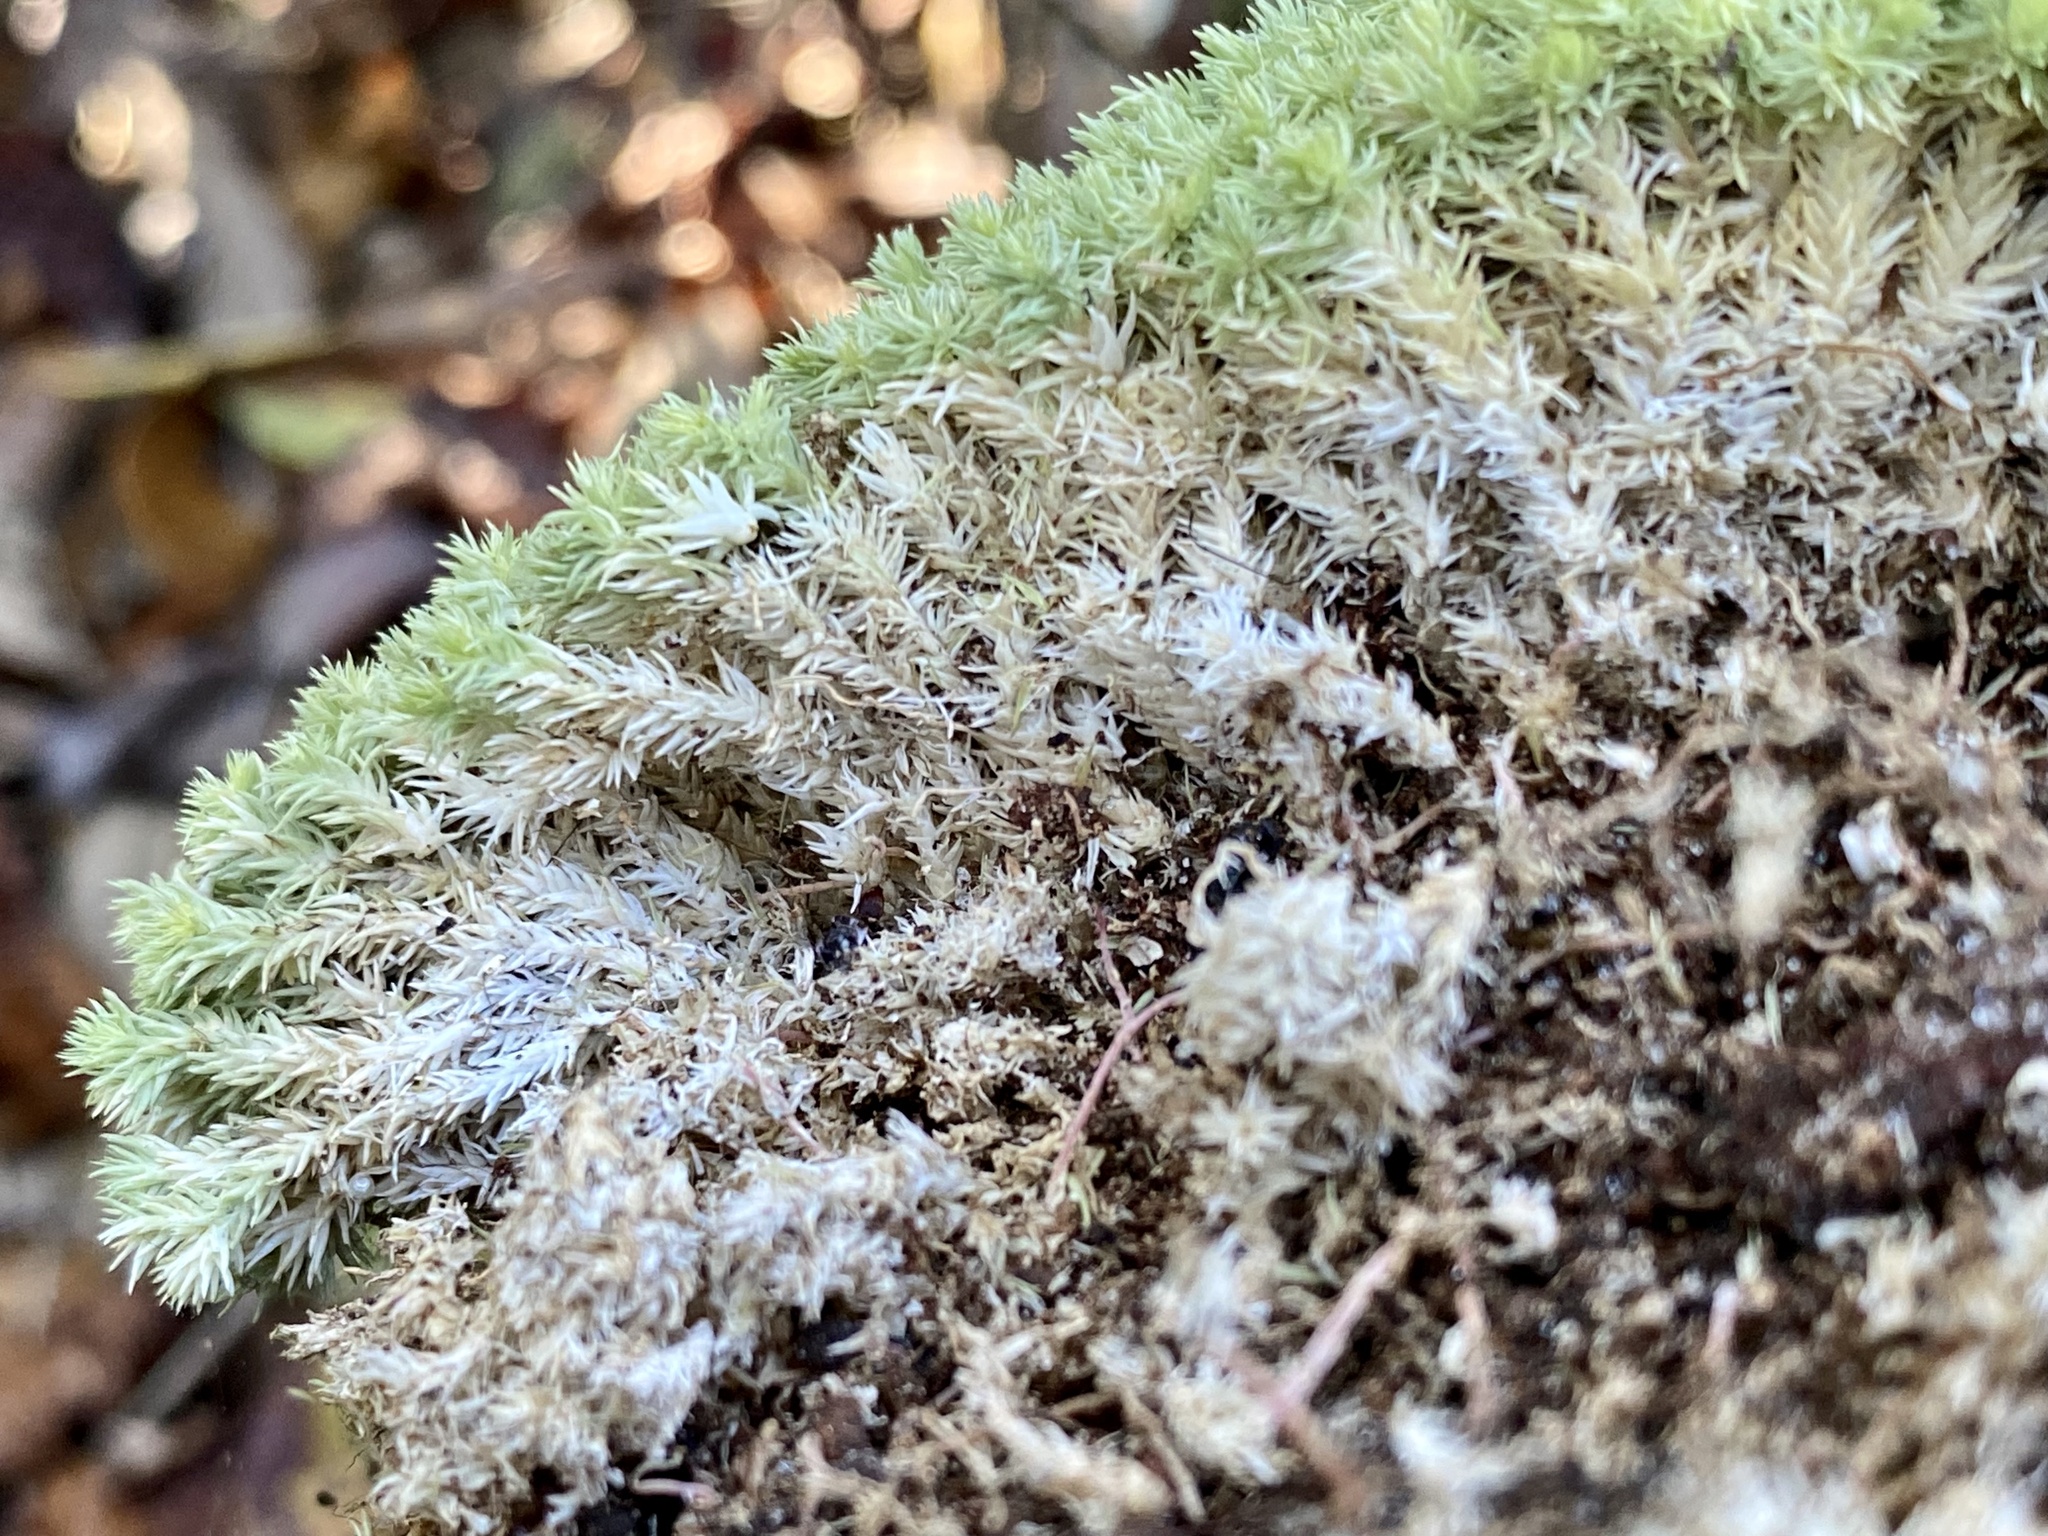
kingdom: Plantae
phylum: Bryophyta
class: Bryopsida
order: Dicranales
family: Leucobryaceae
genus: Leucobryum
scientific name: Leucobryum albidum
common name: White moss
